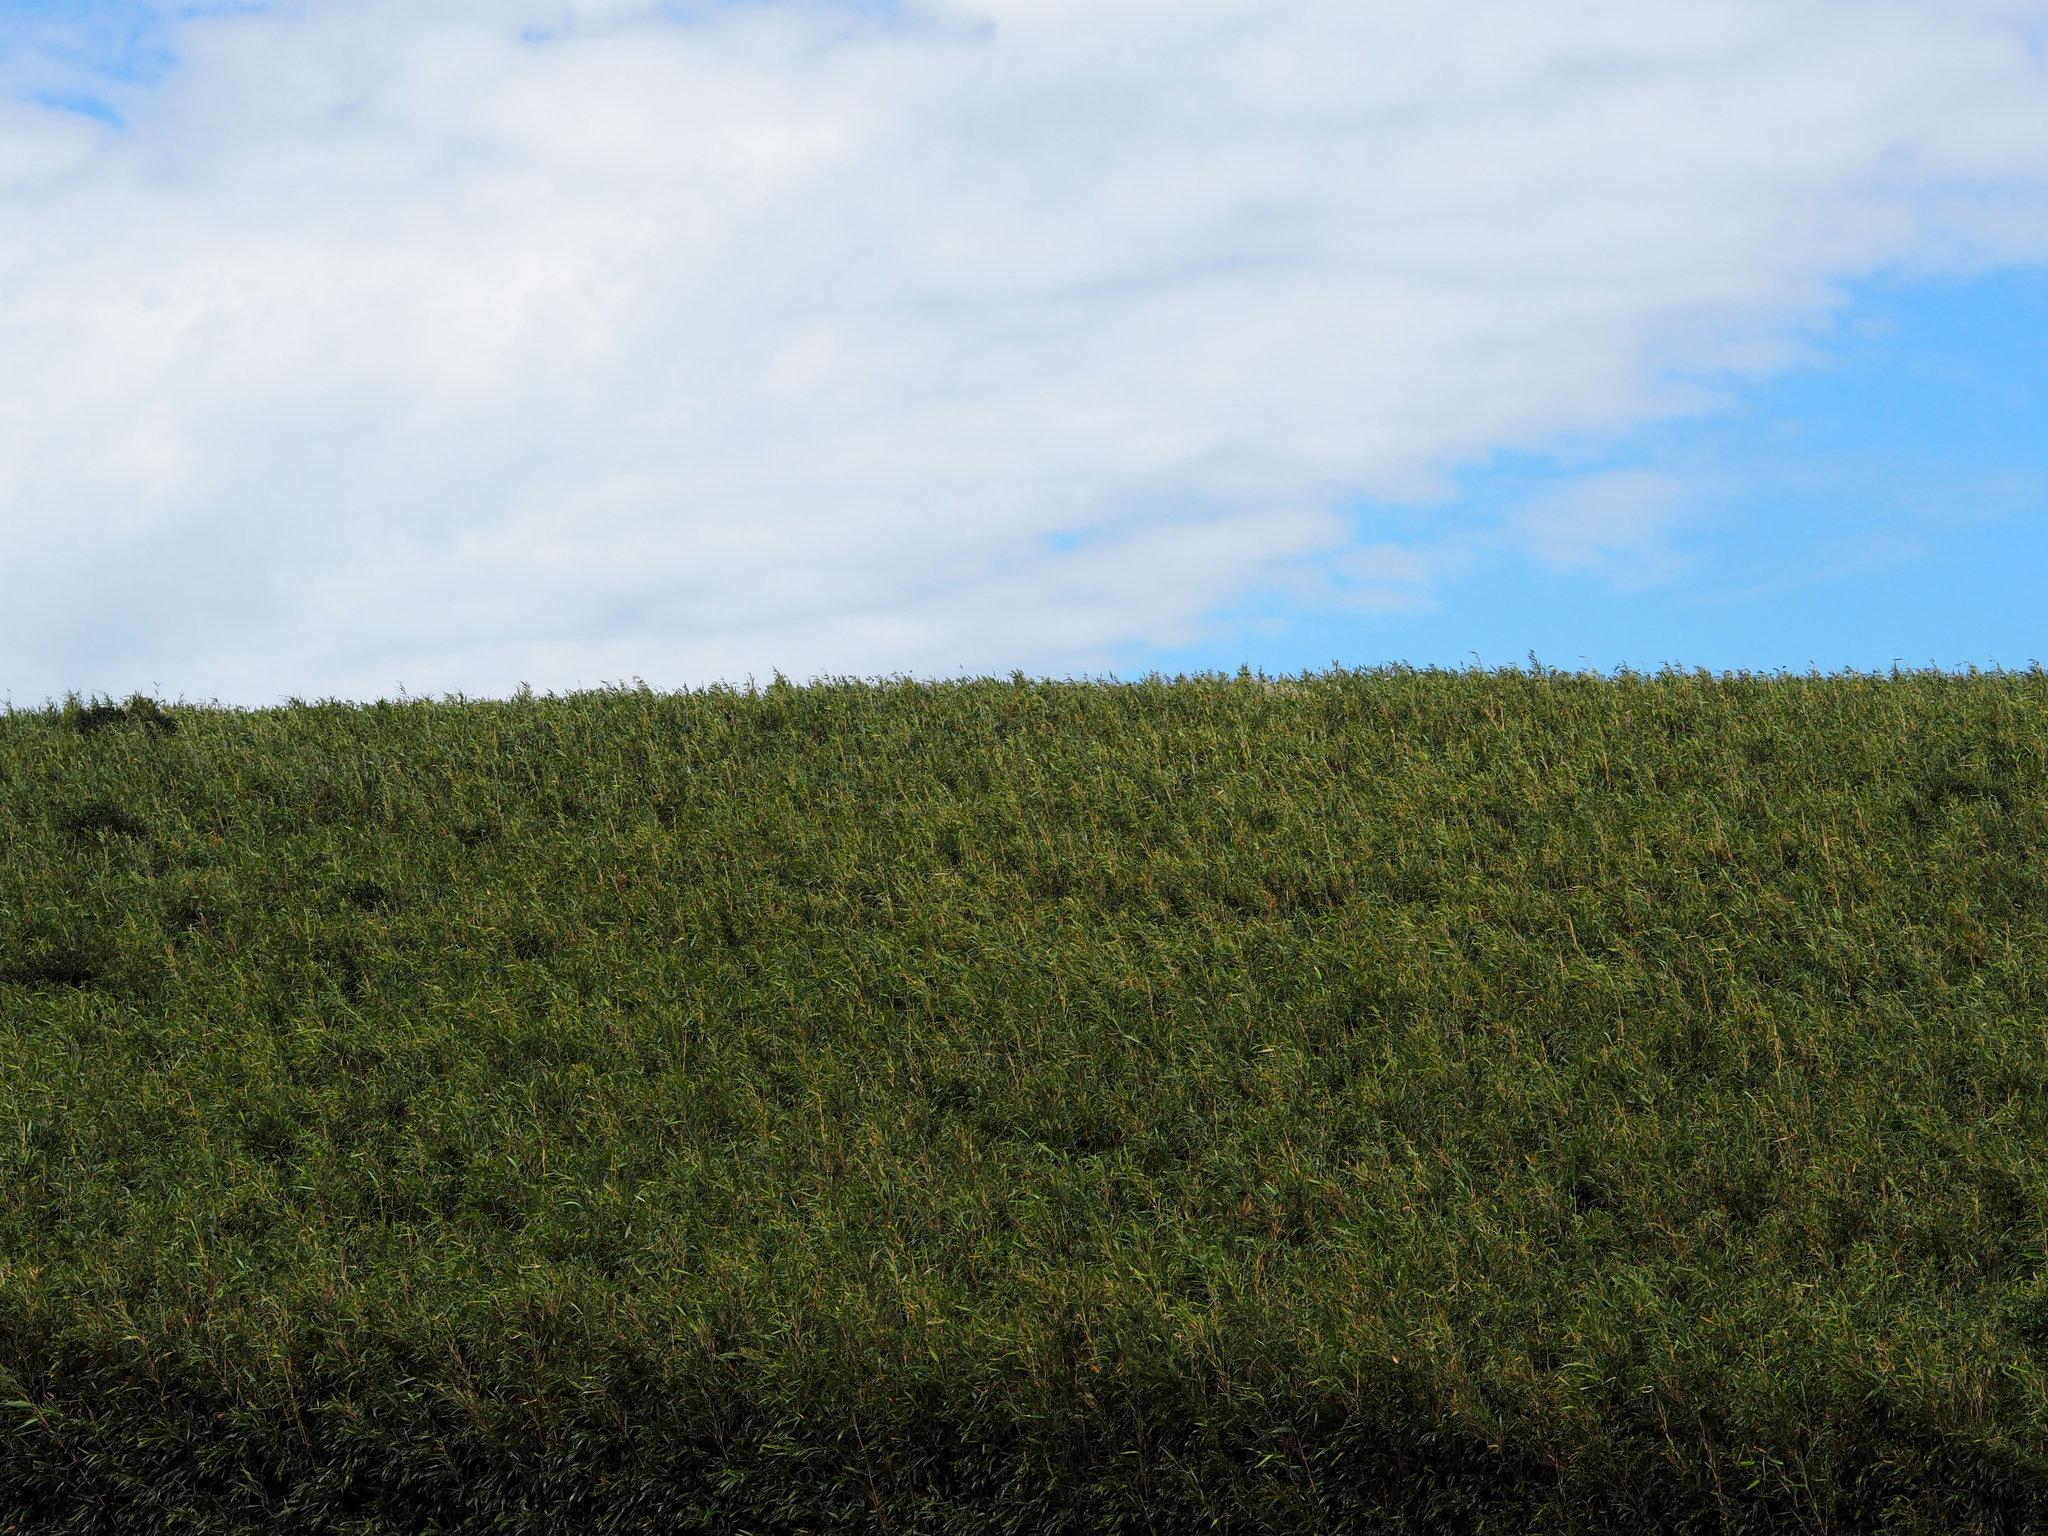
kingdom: Plantae
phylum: Tracheophyta
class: Liliopsida
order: Poales
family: Poaceae
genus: Pseudosasa
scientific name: Pseudosasa japonica
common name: Arrow bamboo
